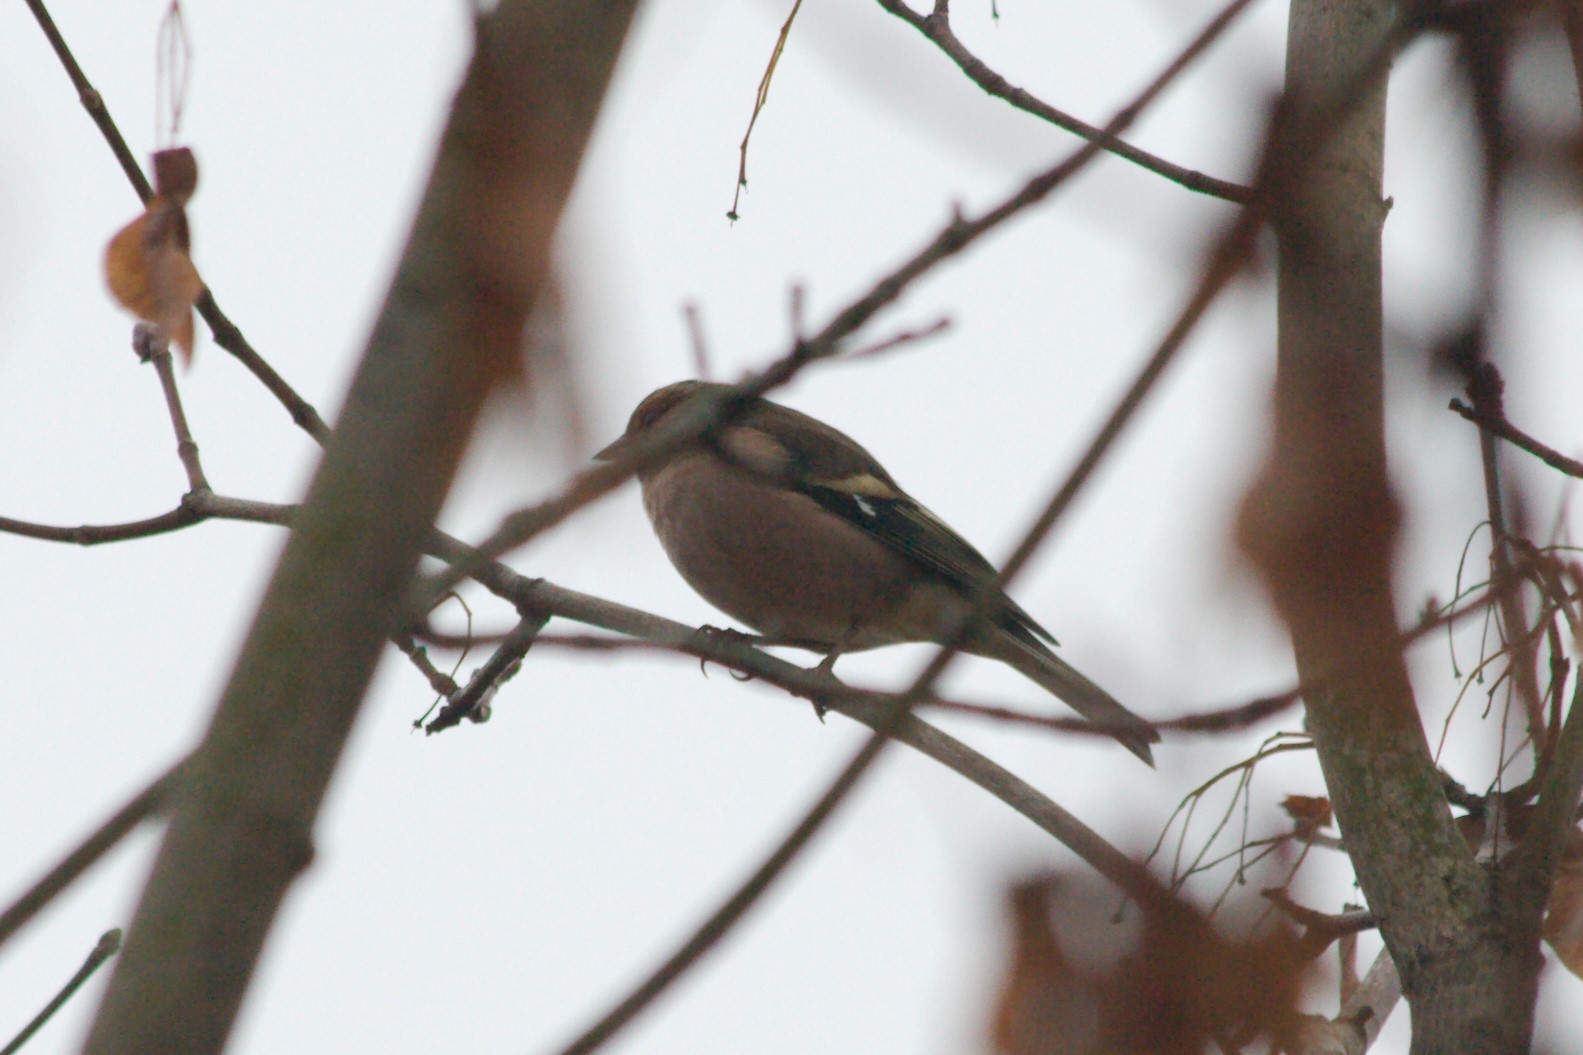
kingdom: Animalia
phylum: Chordata
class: Aves
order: Passeriformes
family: Fringillidae
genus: Fringilla
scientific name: Fringilla coelebs
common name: Common chaffinch
